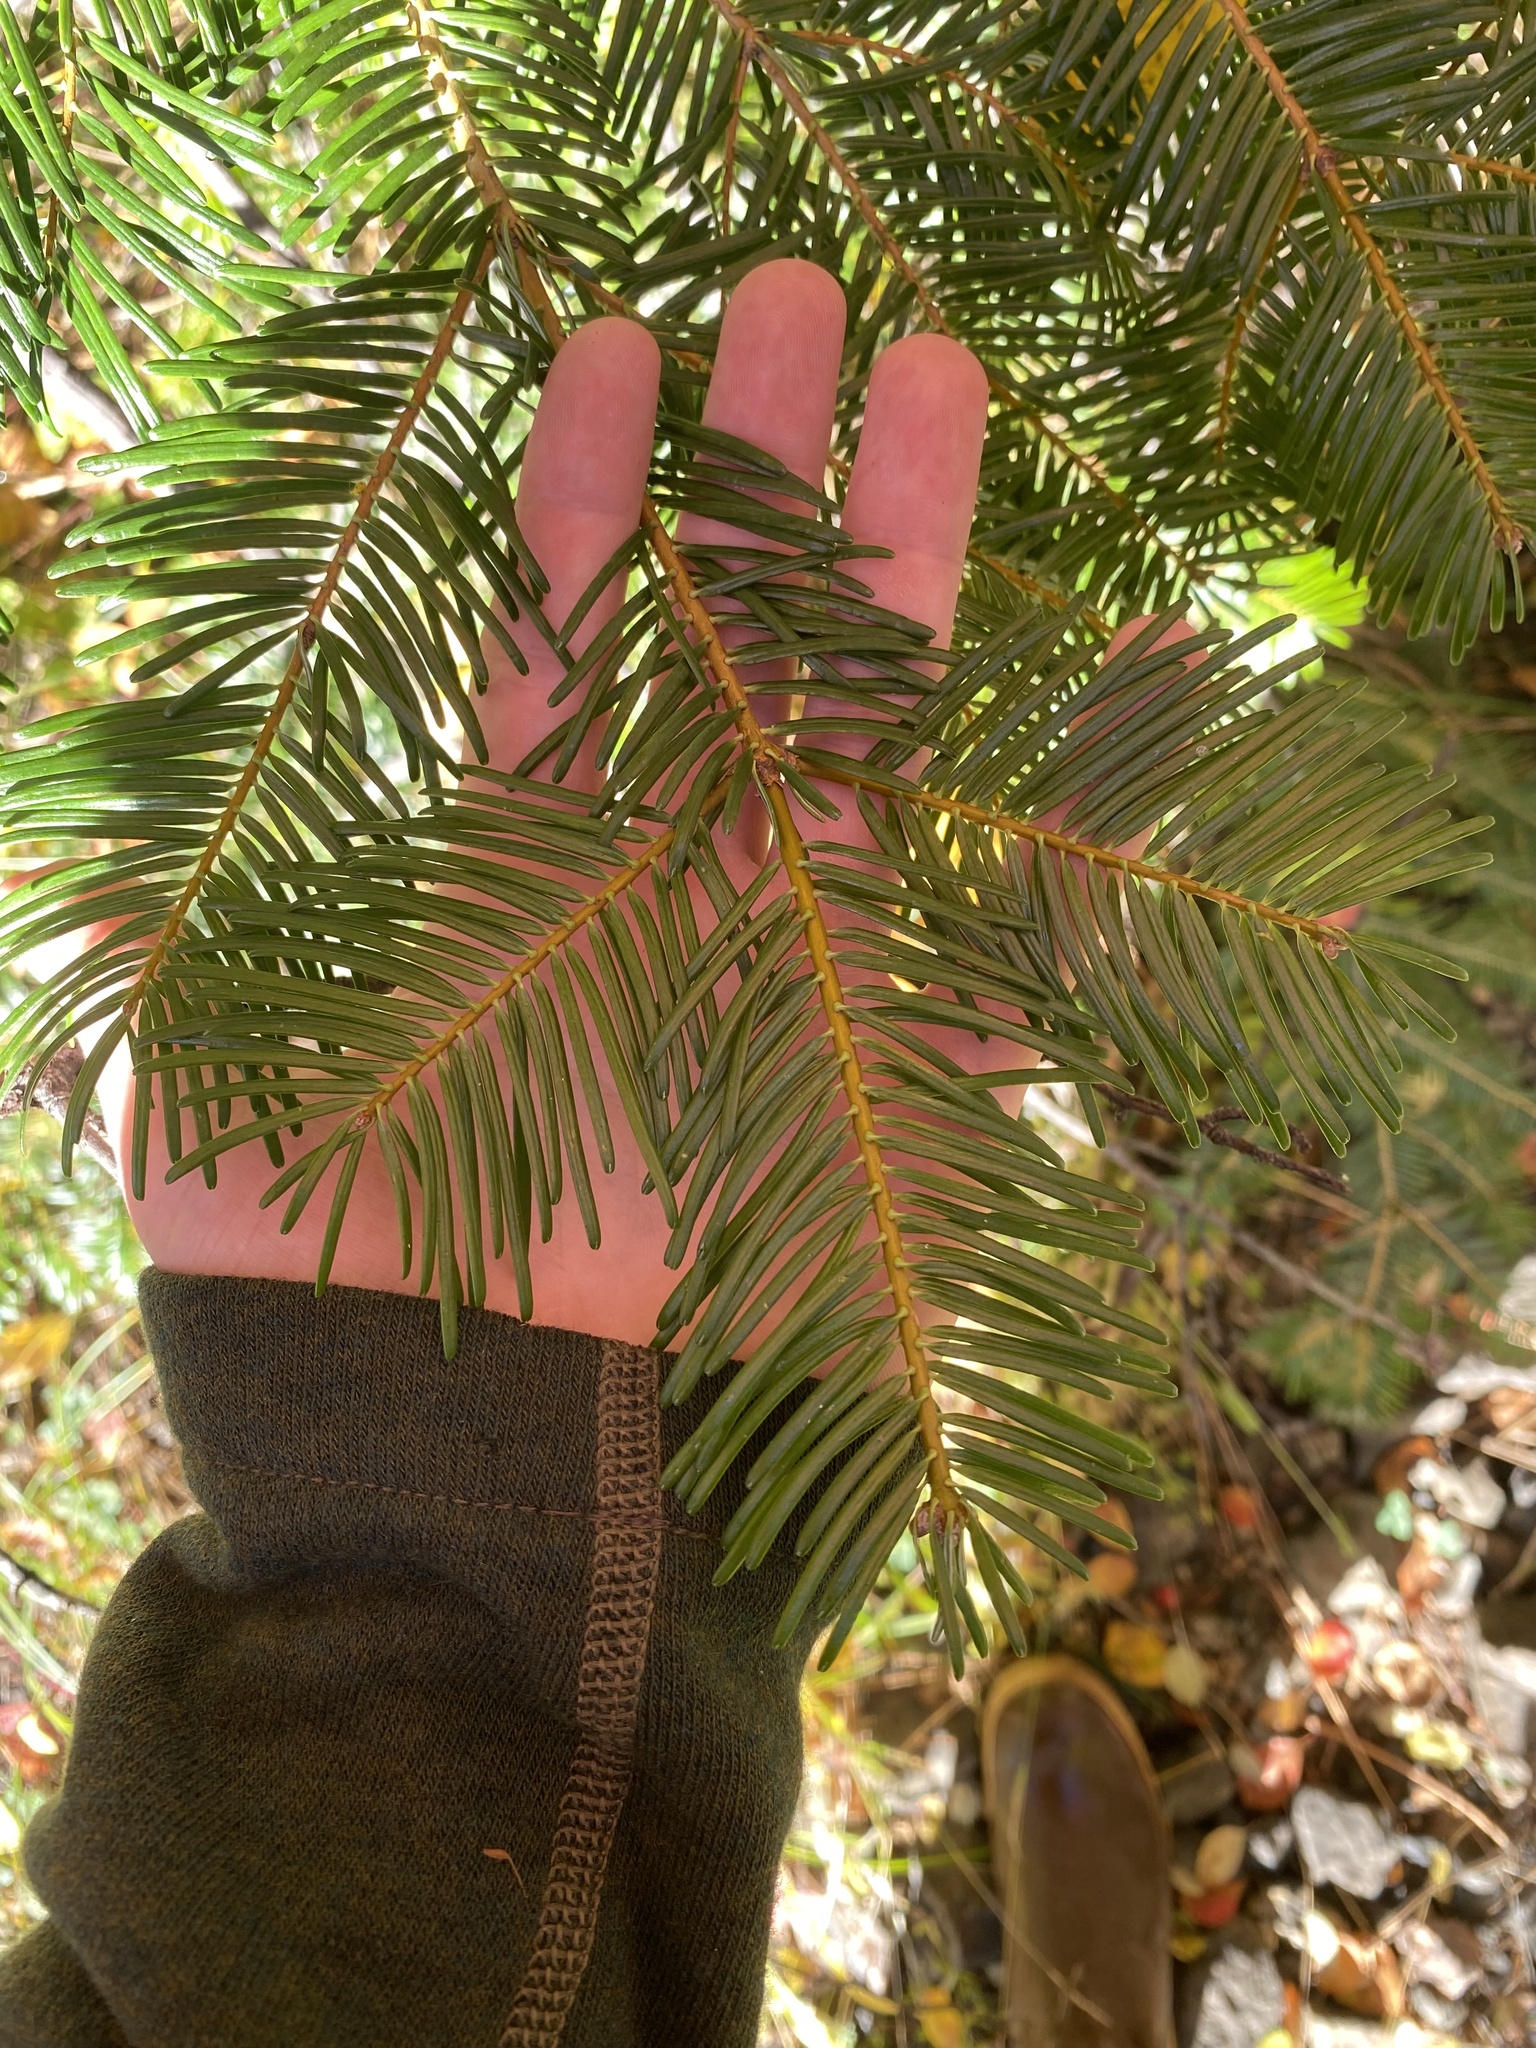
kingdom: Plantae
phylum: Tracheophyta
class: Pinopsida
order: Pinales
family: Pinaceae
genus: Abies
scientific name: Abies grandis
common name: Giant fir
